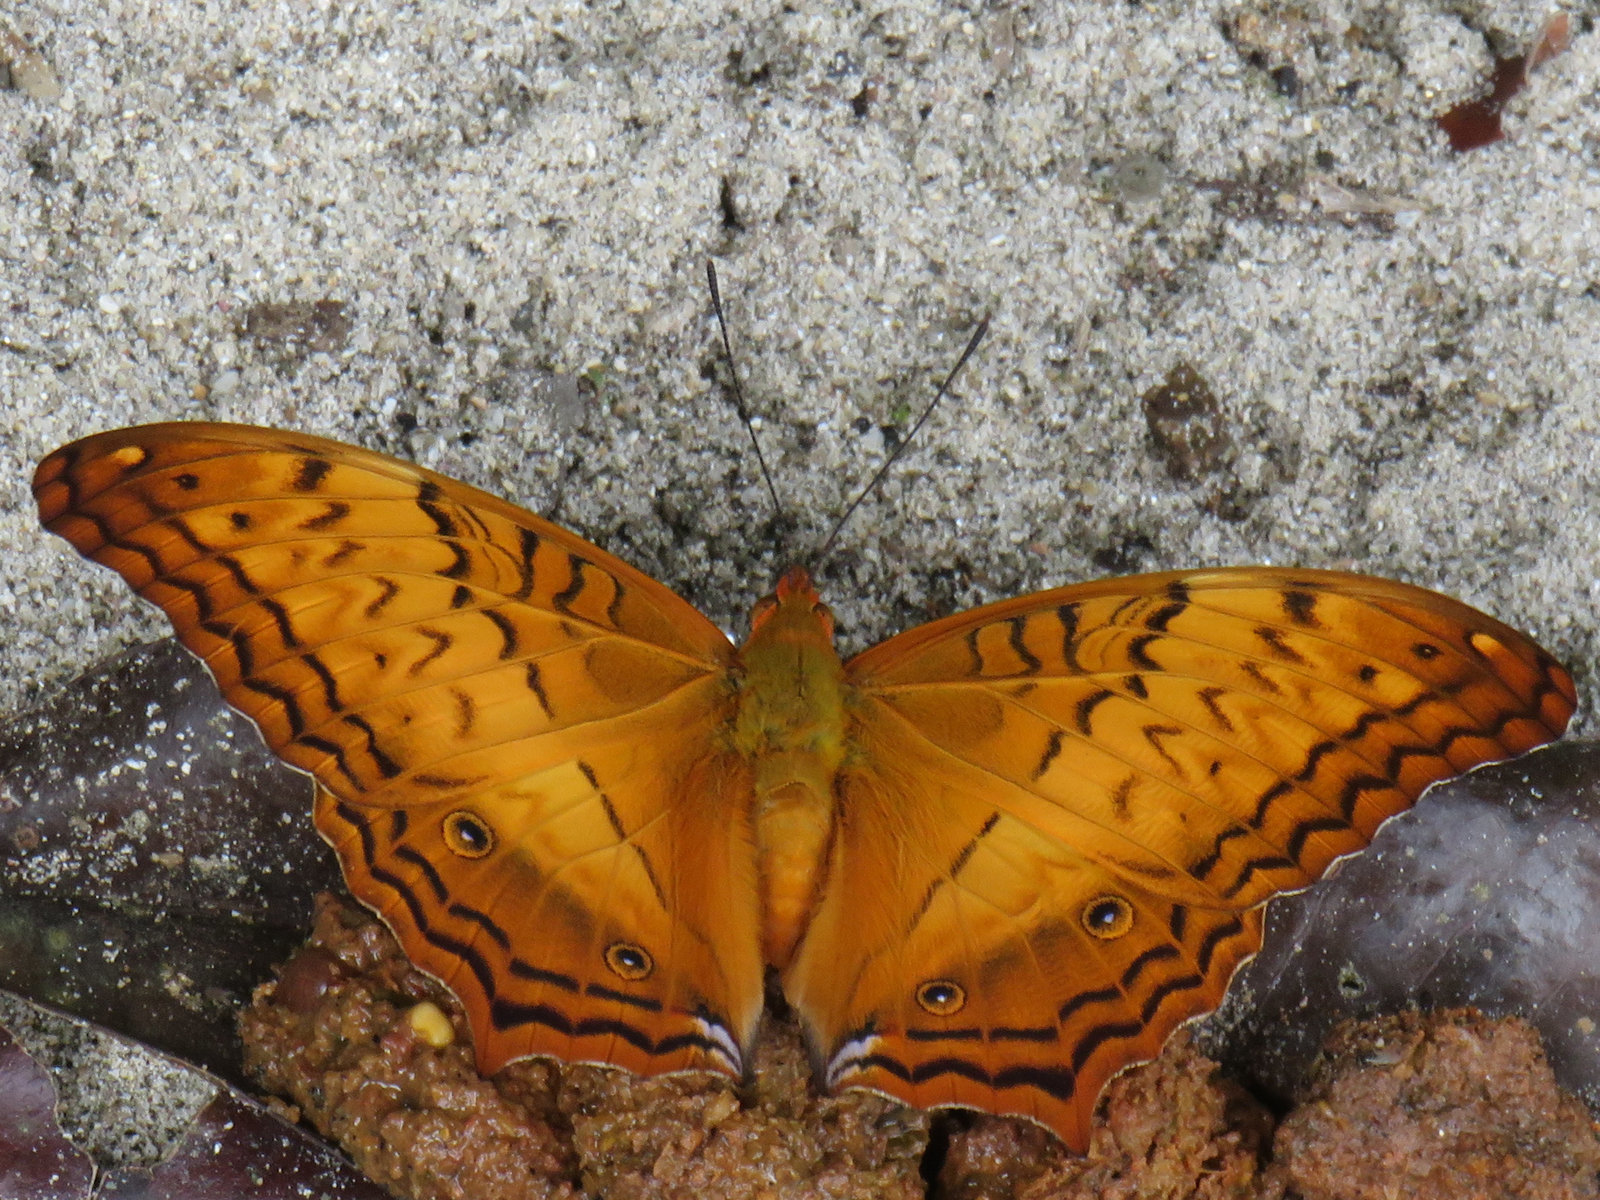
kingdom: Animalia
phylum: Arthropoda
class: Insecta
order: Lepidoptera
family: Nymphalidae
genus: Vindula
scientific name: Vindula erota
